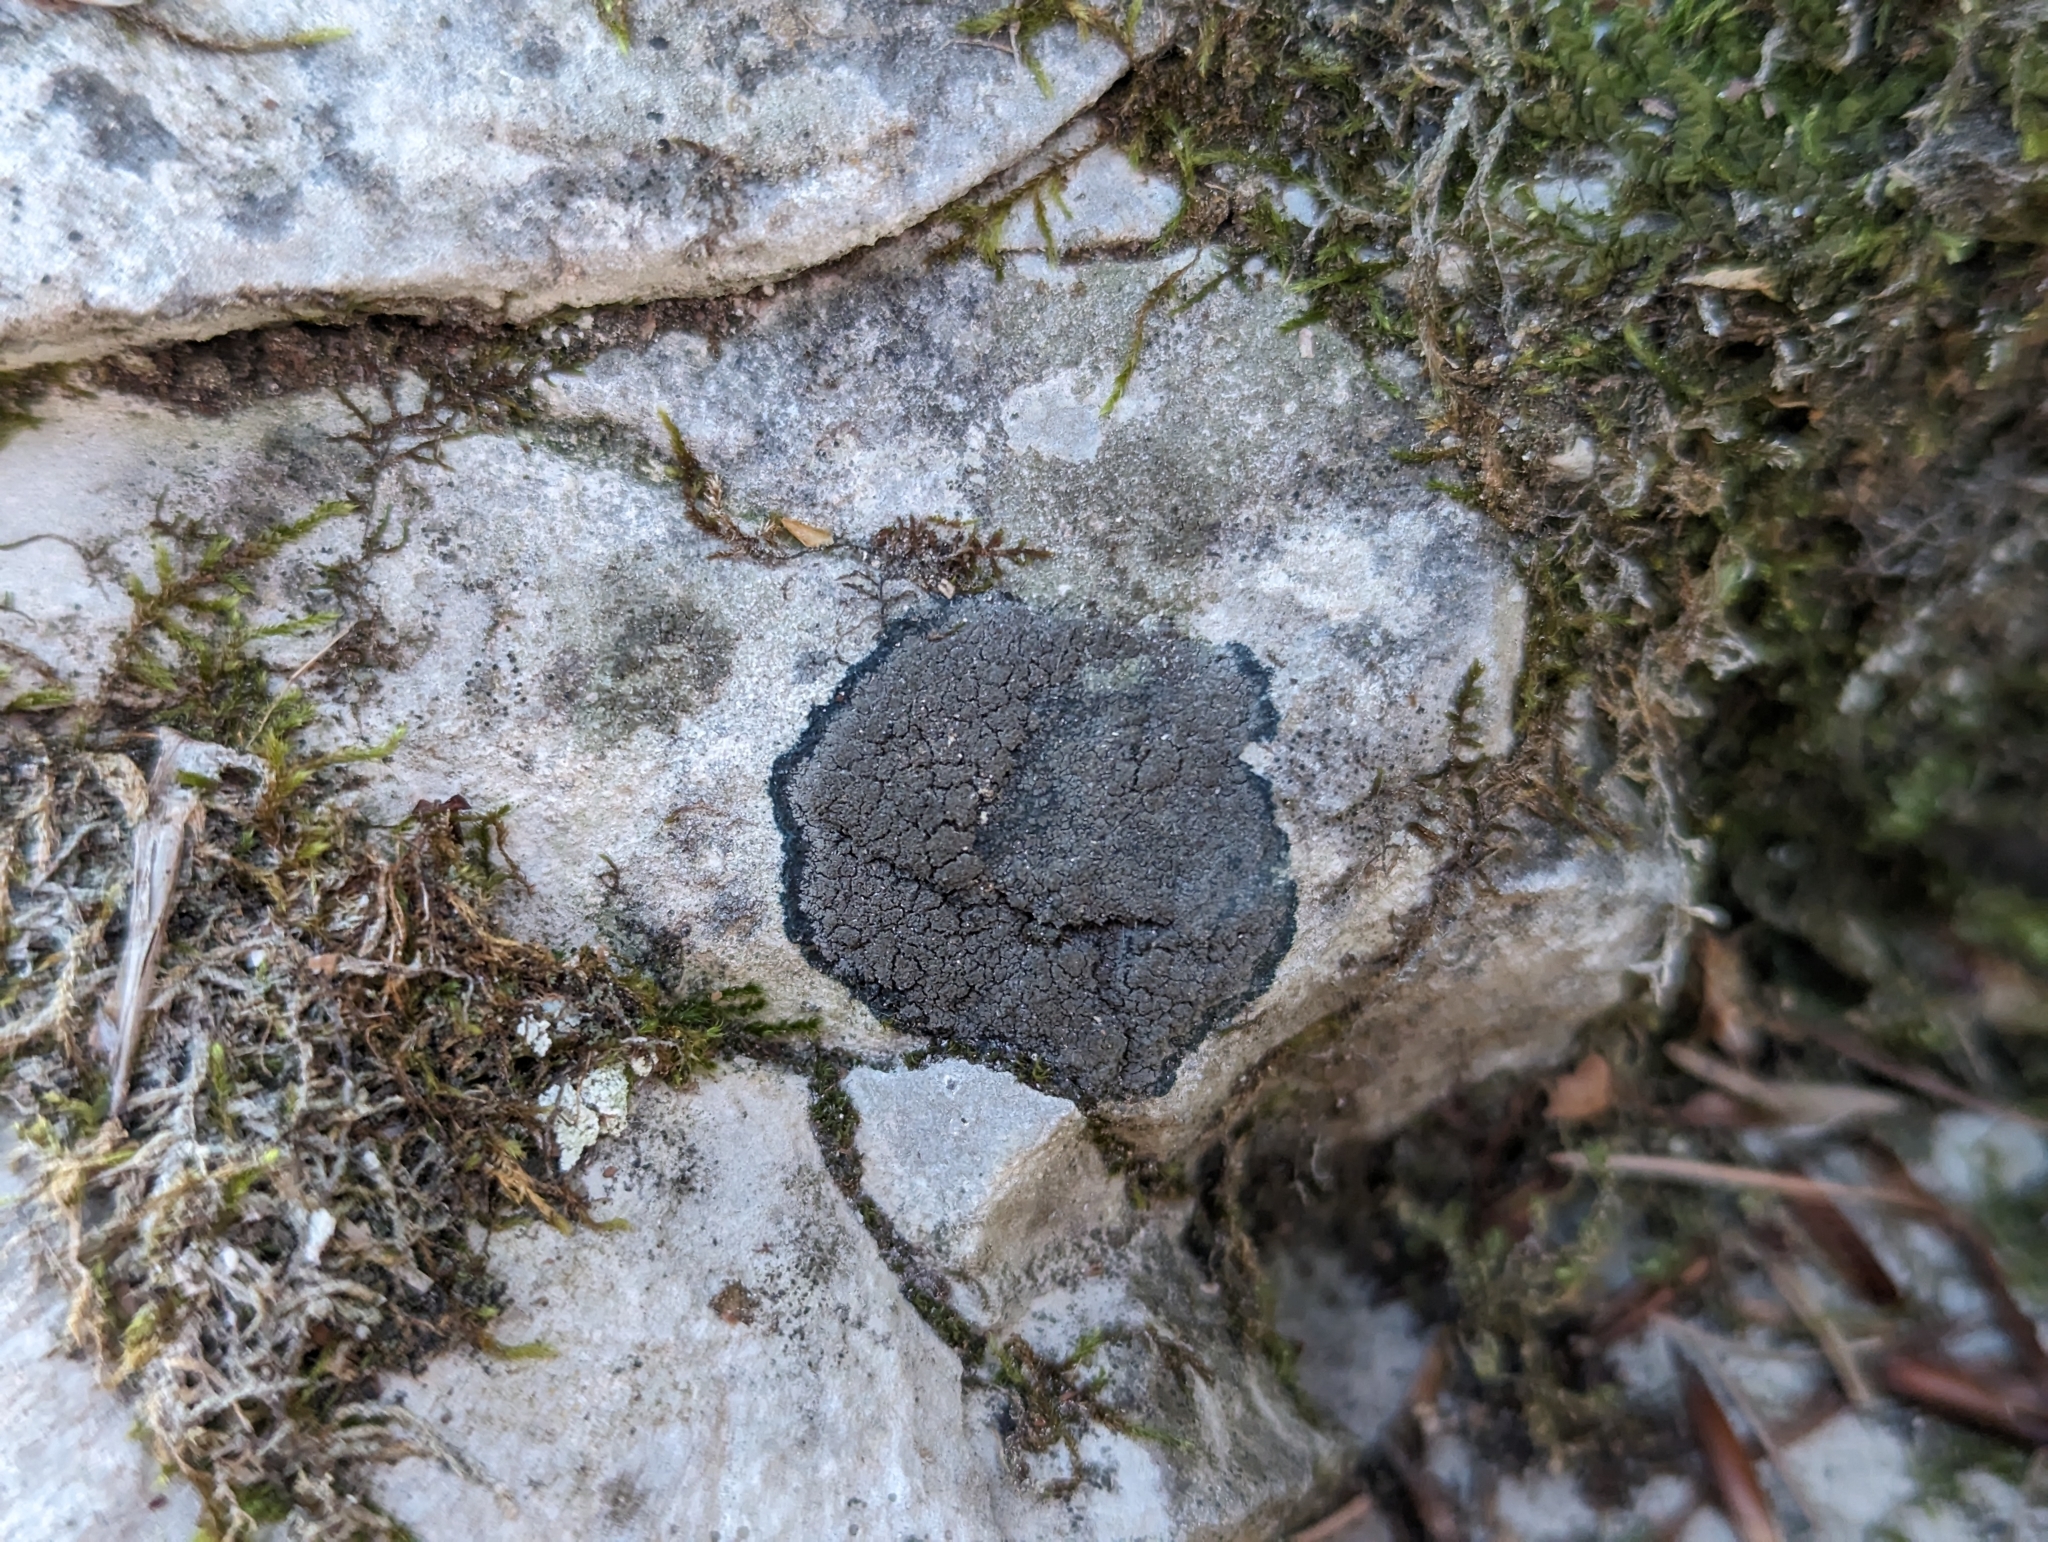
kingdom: Fungi
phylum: Ascomycota
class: Lecanoromycetes
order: Peltigerales
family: Placynthiaceae
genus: Placynthium
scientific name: Placynthium nigrum
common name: Blackthread lichen
